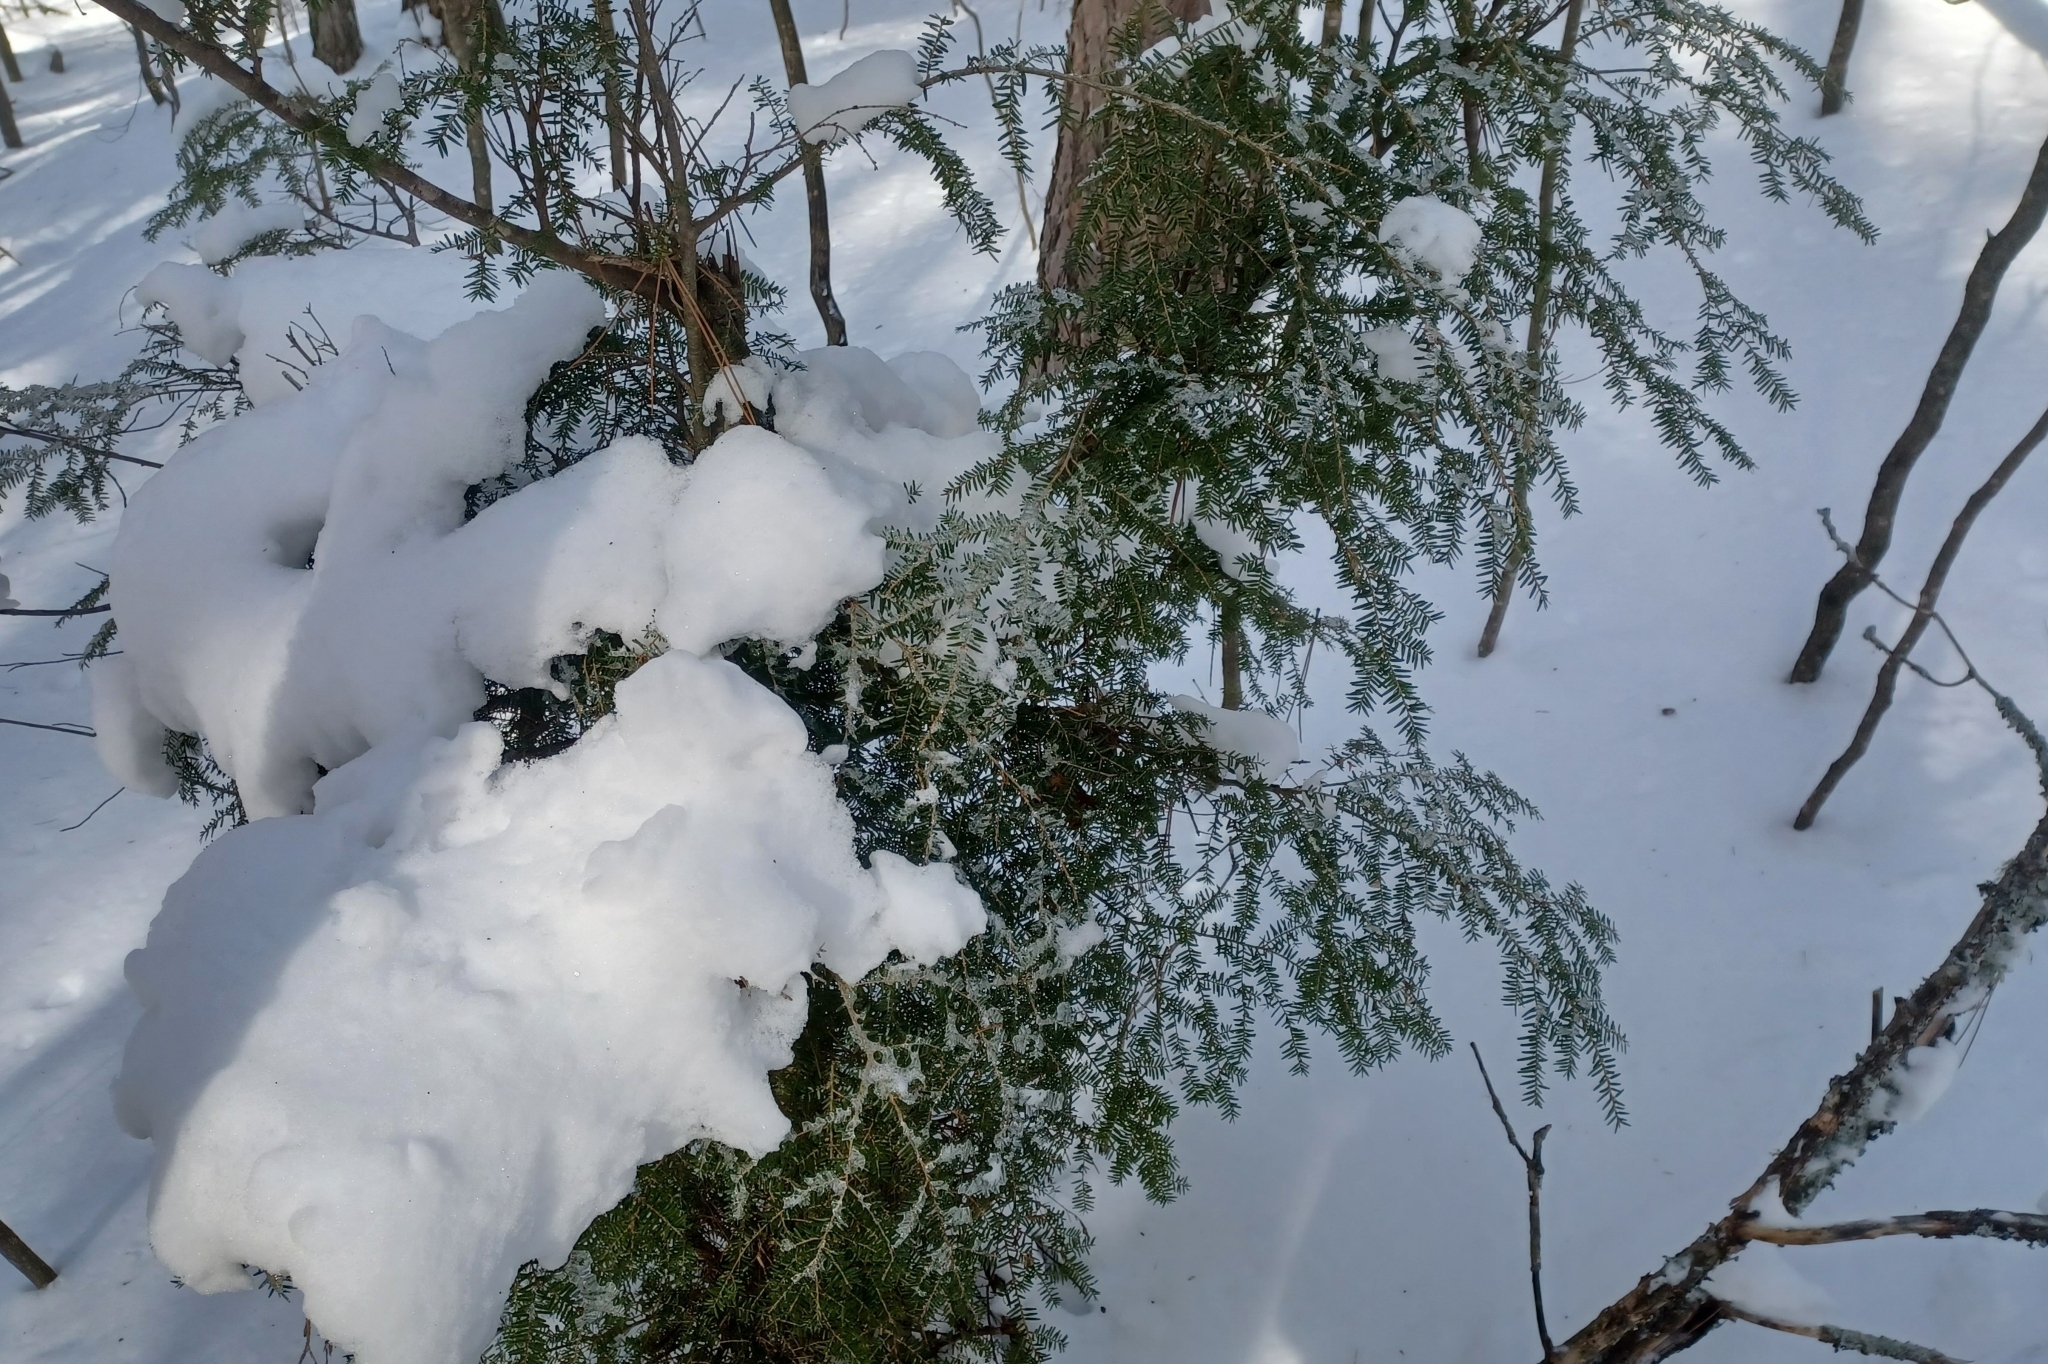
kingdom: Plantae
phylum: Tracheophyta
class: Pinopsida
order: Pinales
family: Pinaceae
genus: Tsuga
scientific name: Tsuga canadensis
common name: Eastern hemlock
